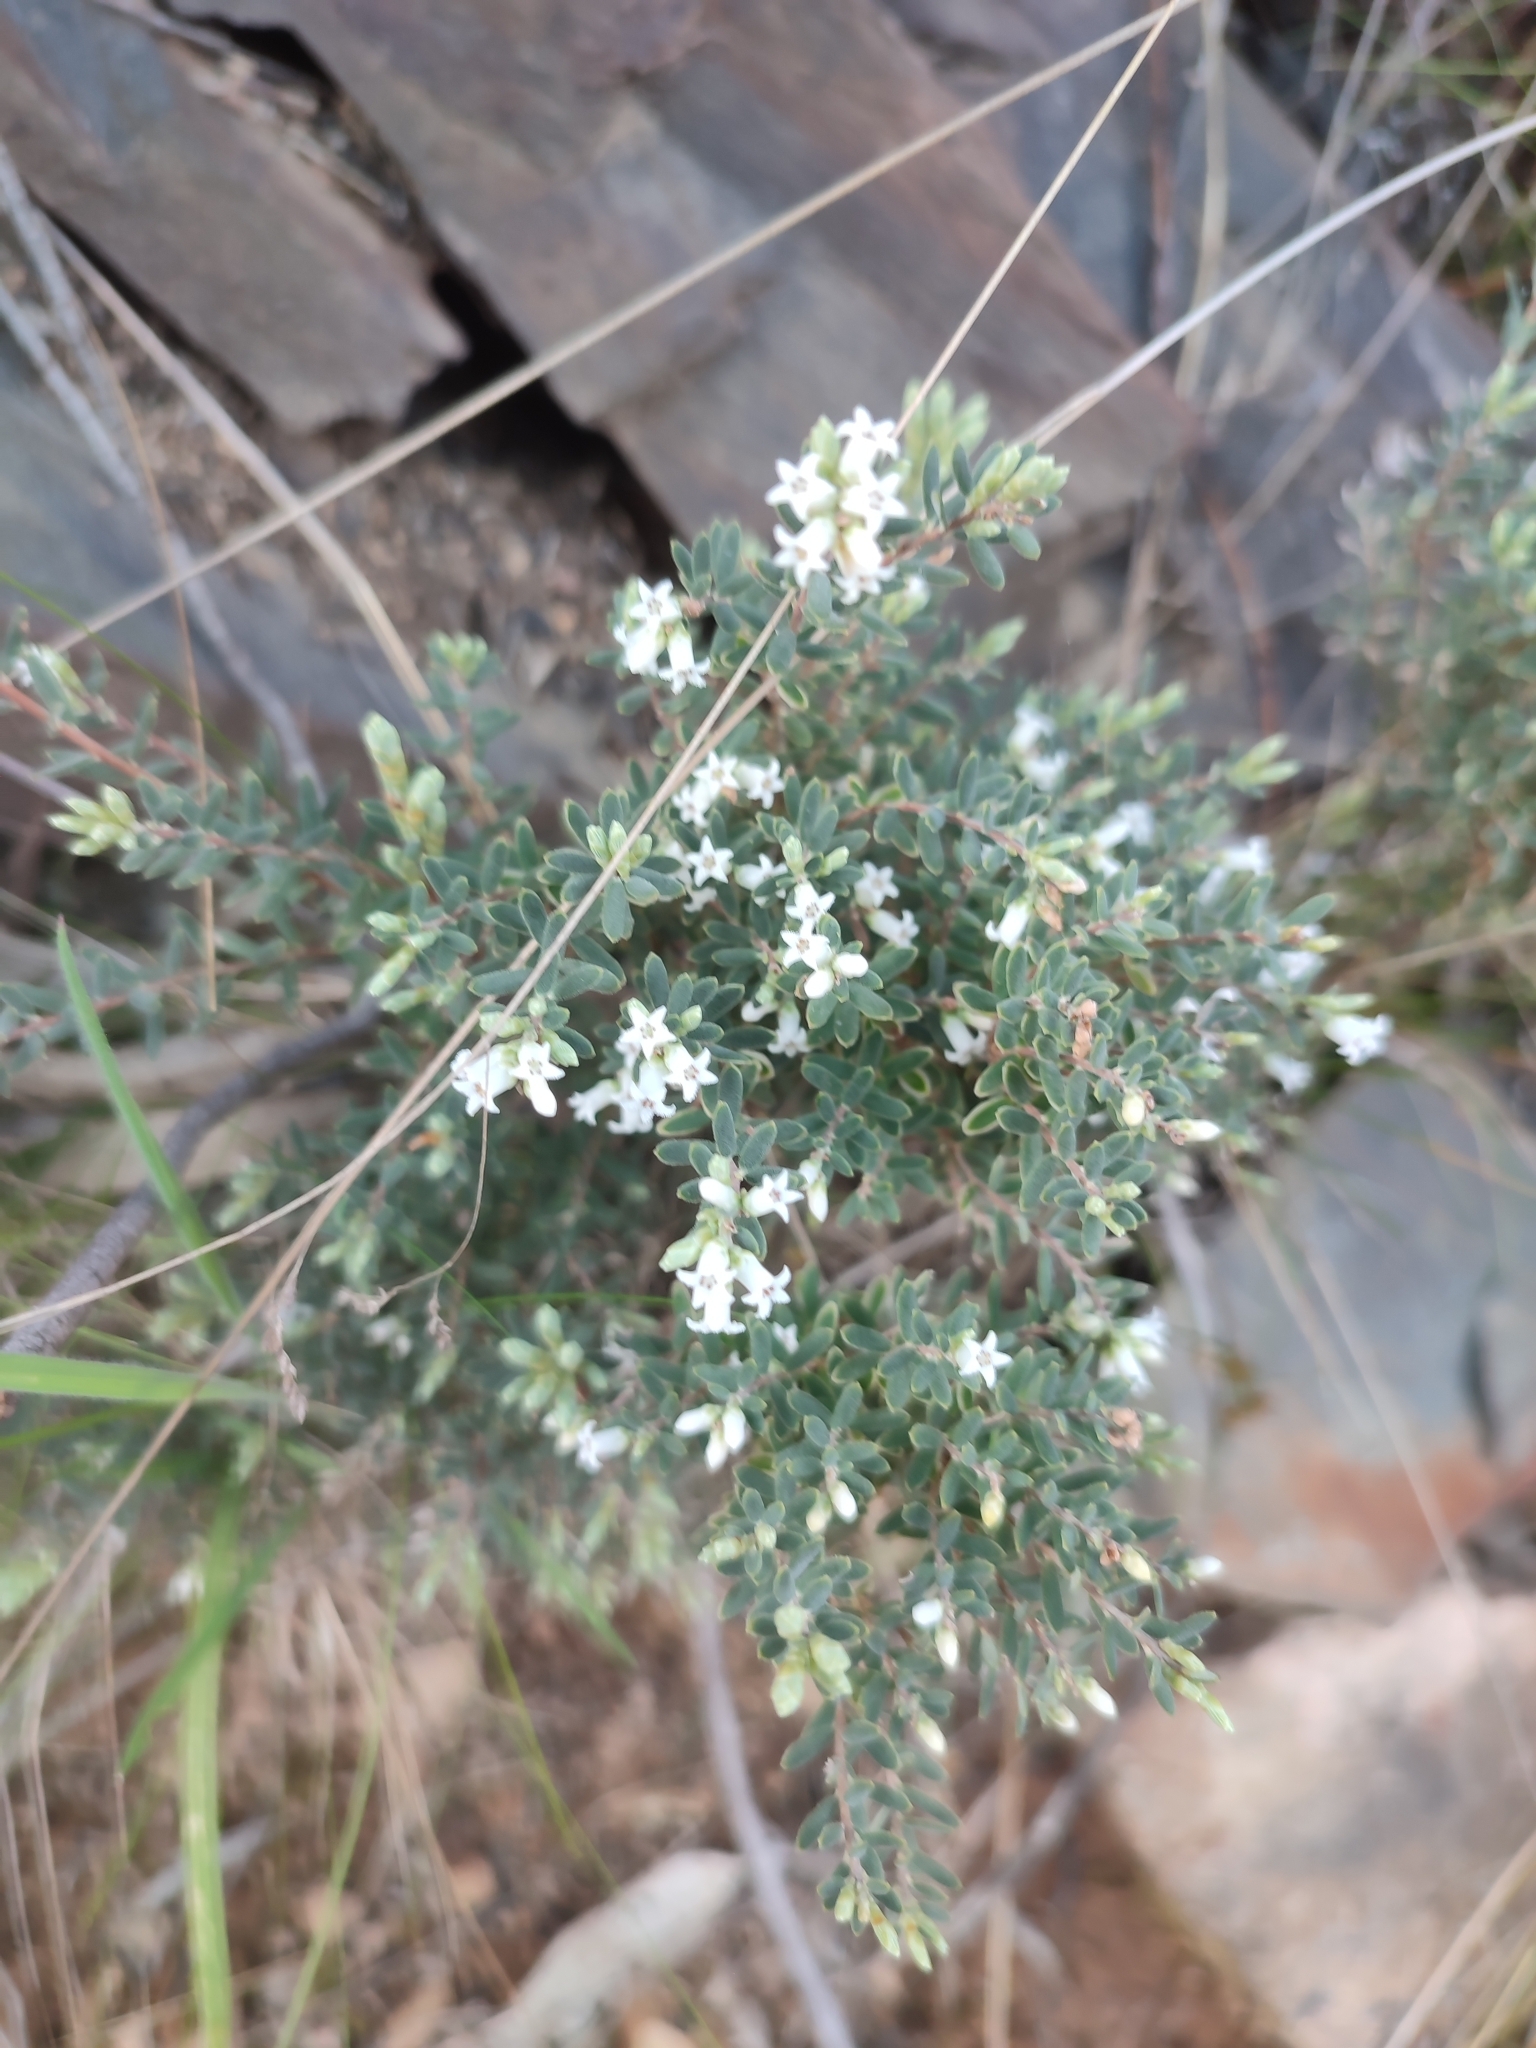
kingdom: Plantae
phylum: Tracheophyta
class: Magnoliopsida
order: Ericales
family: Ericaceae
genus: Acrothamnus
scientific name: Acrothamnus hookeri
